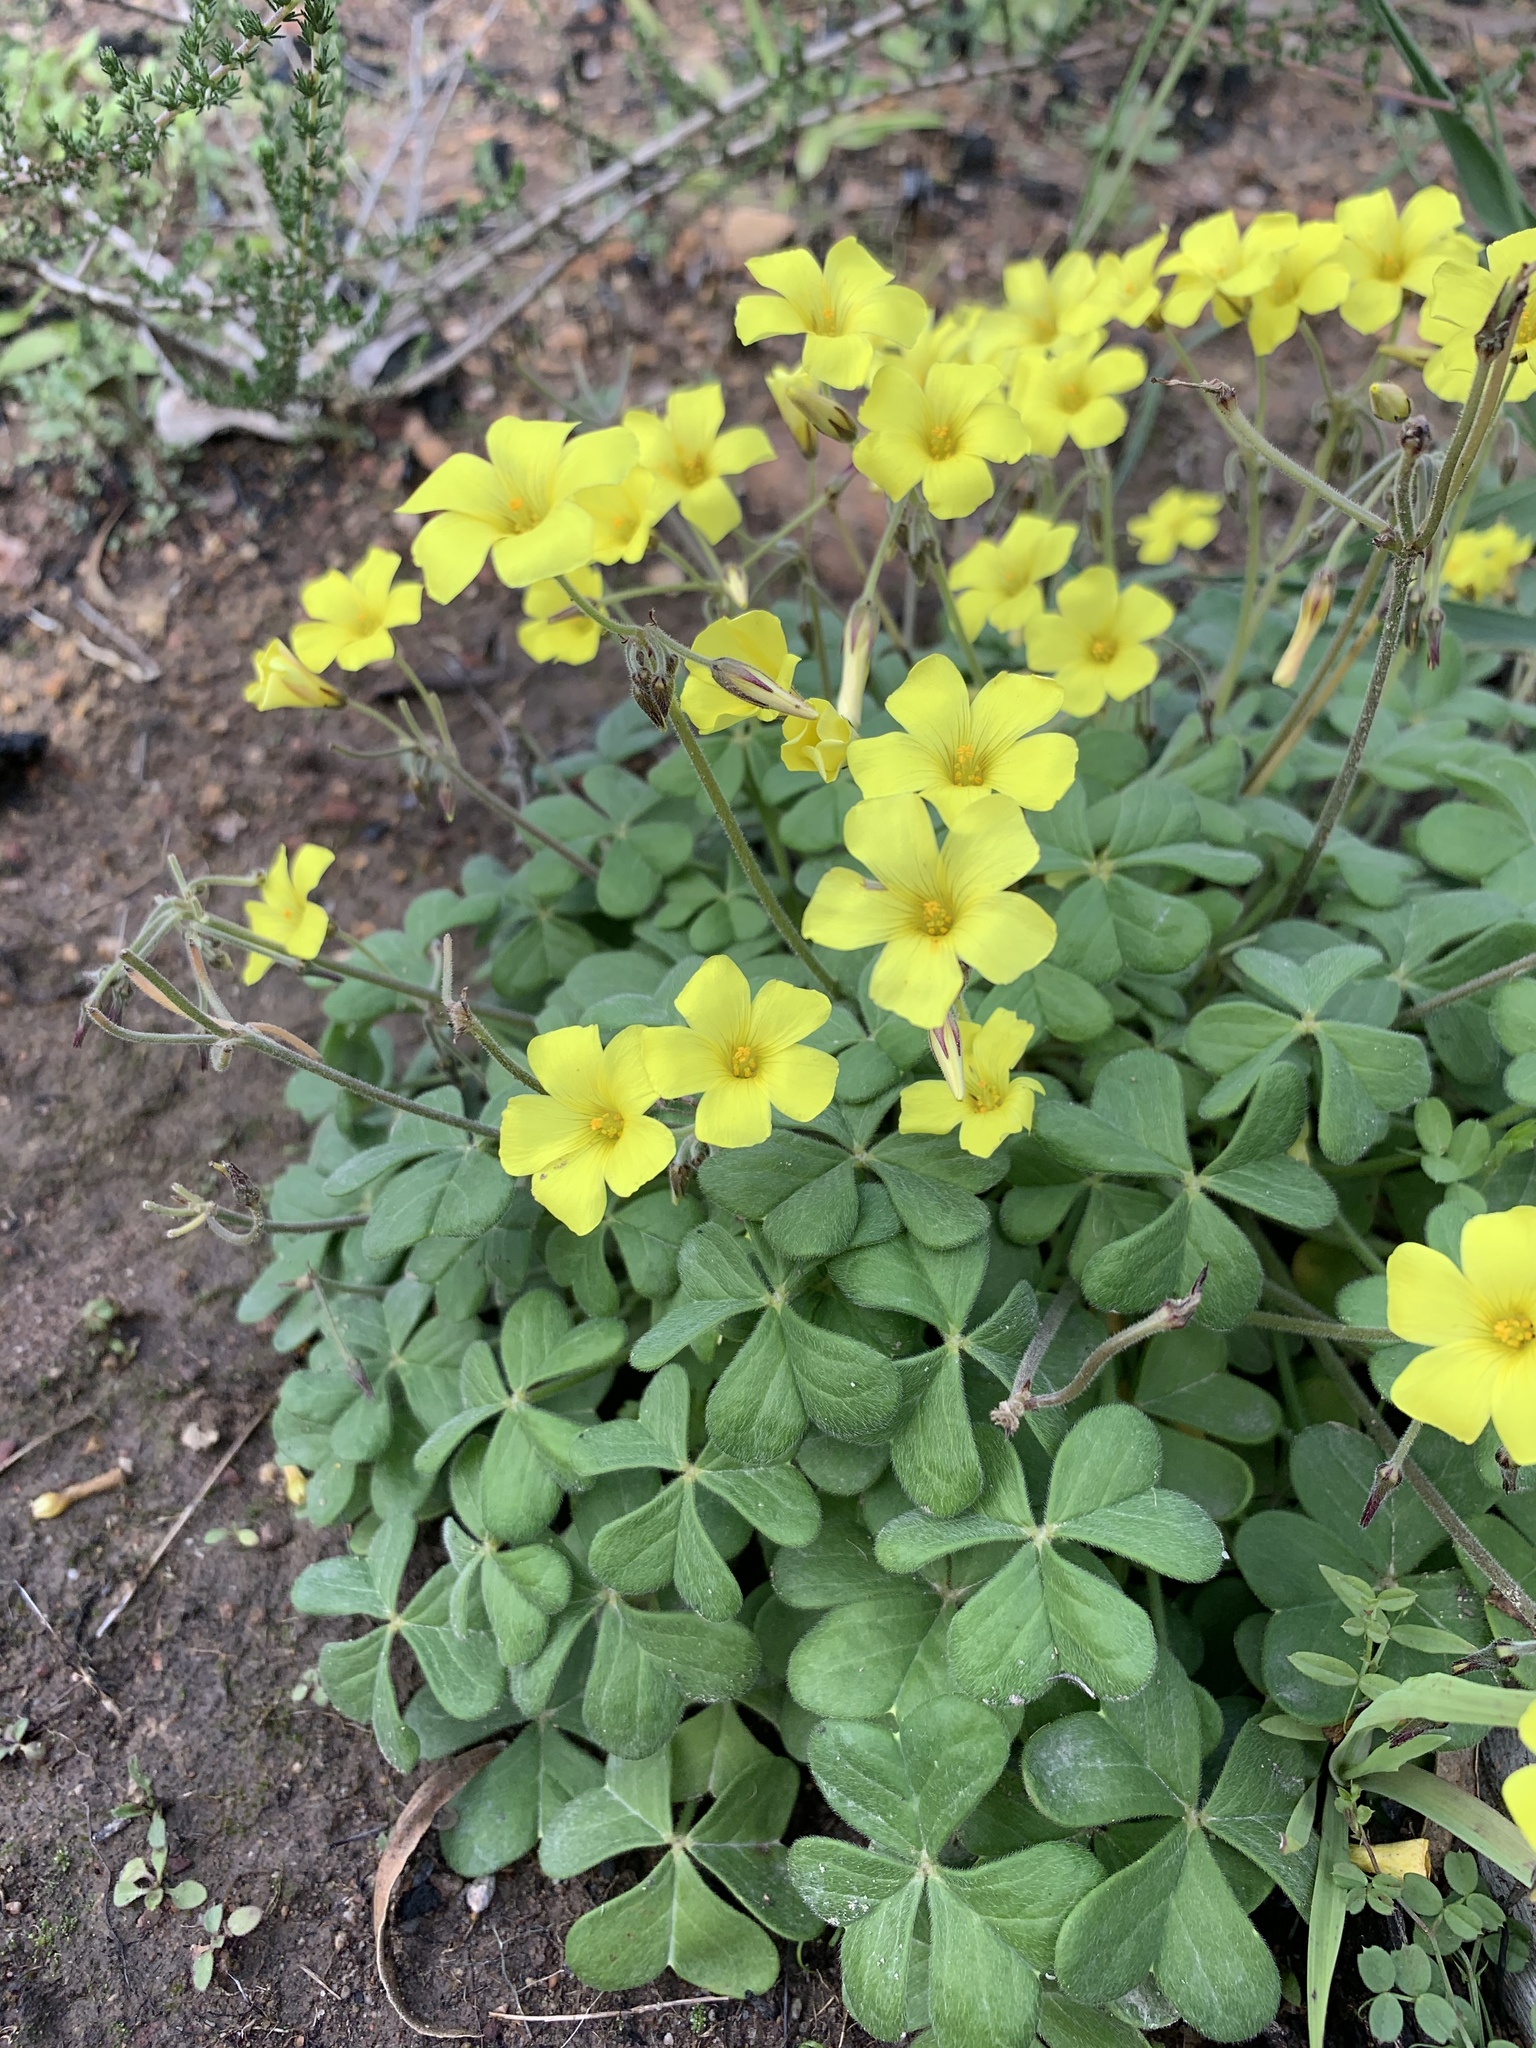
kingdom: Plantae
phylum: Tracheophyta
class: Magnoliopsida
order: Oxalidales
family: Oxalidaceae
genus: Oxalis
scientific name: Oxalis pes-caprae
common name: Bermuda-buttercup
